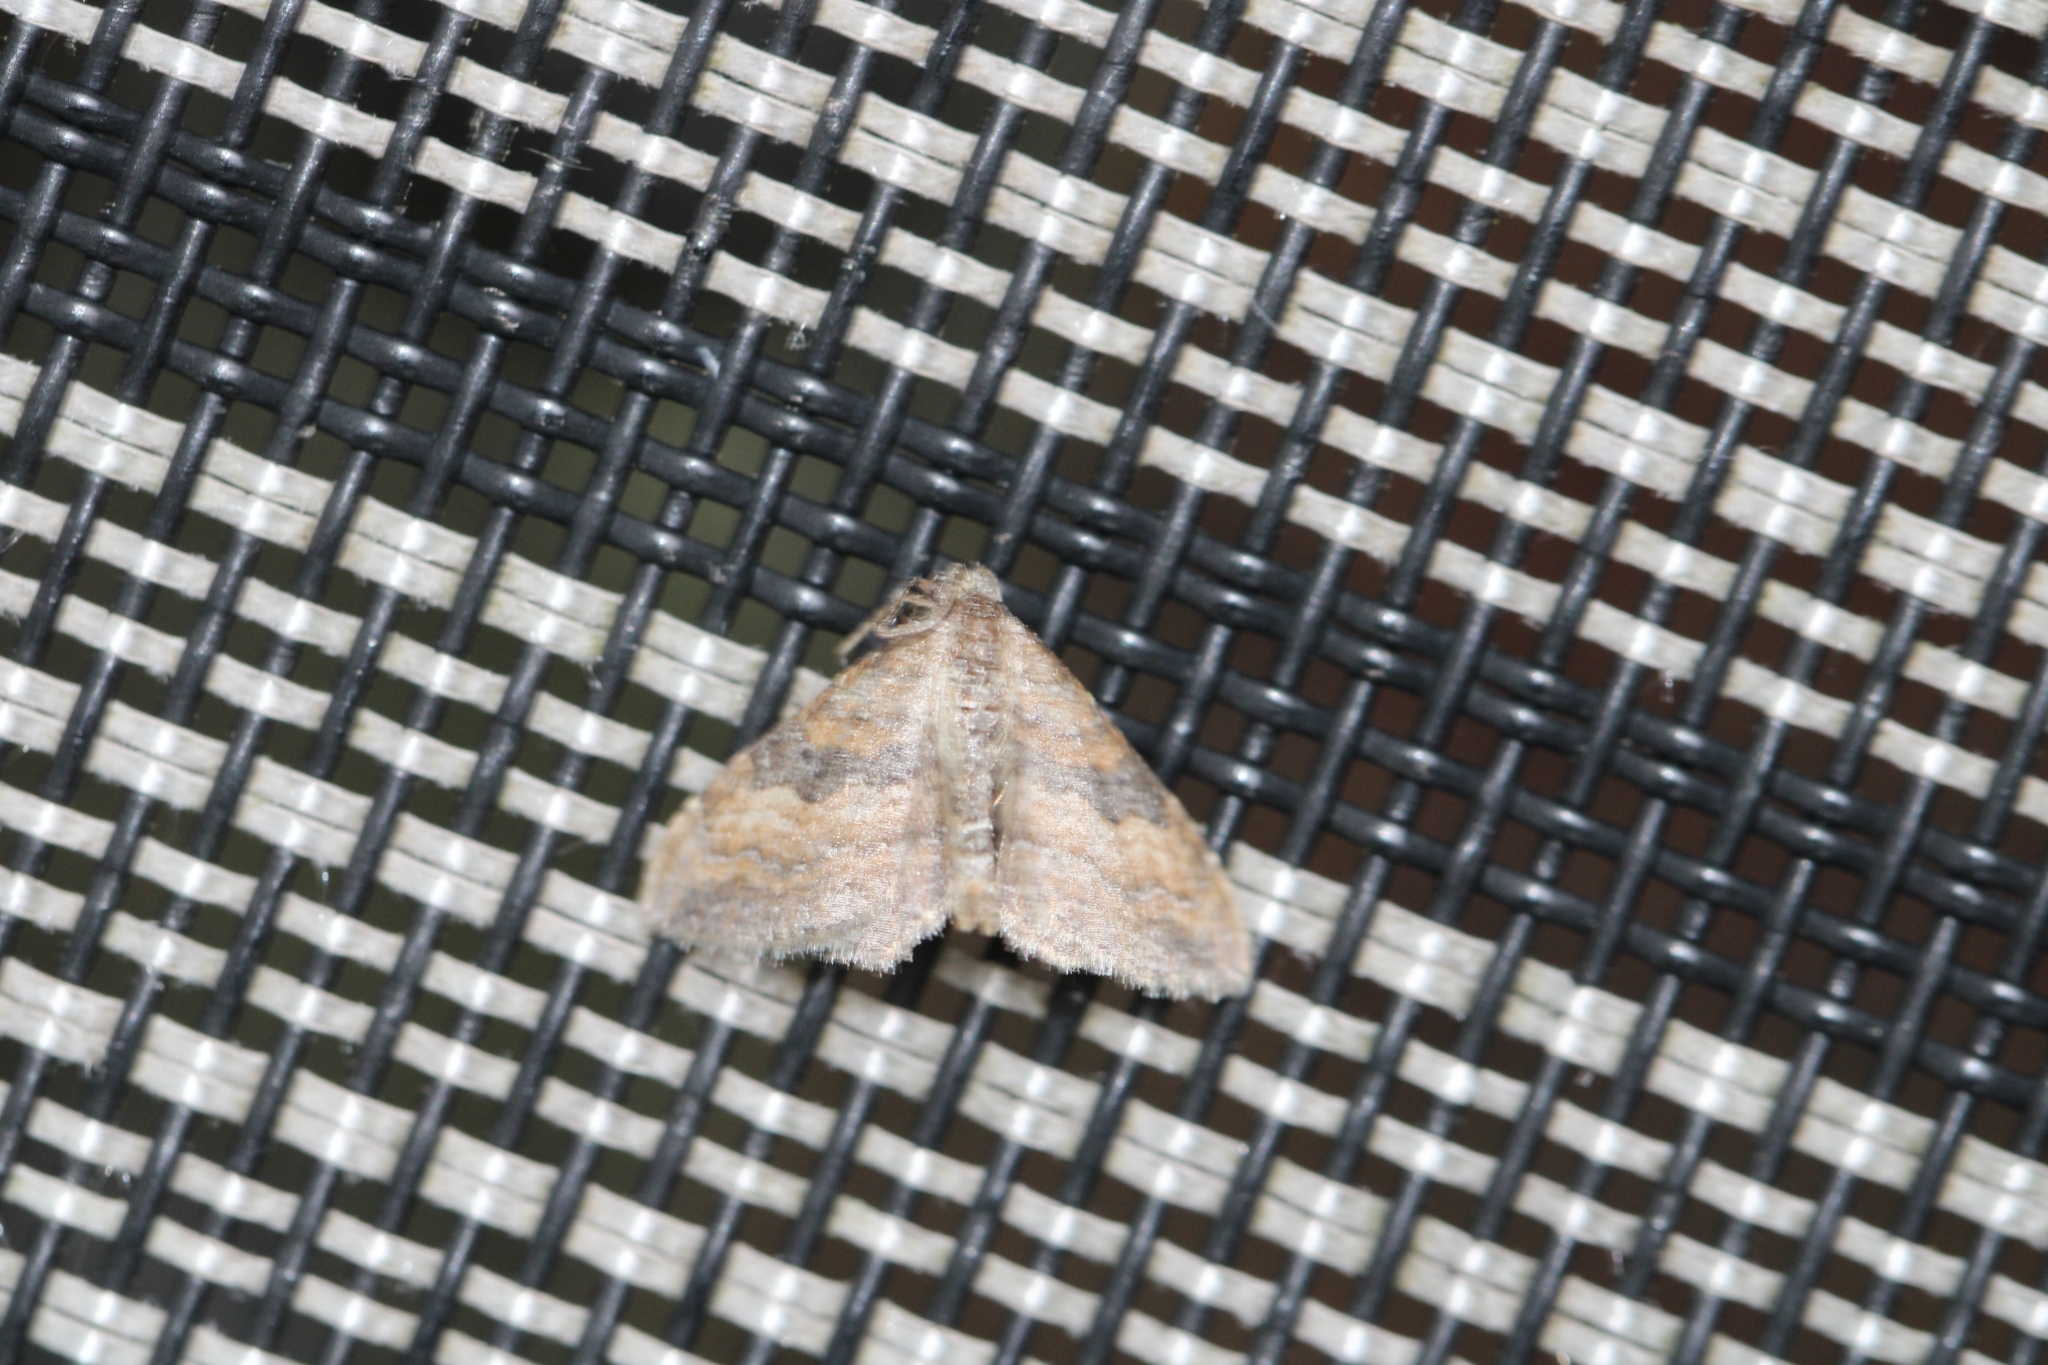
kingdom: Animalia
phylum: Arthropoda
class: Insecta
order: Lepidoptera
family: Geometridae
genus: Orthonama
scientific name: Orthonama obstipata
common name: The gem
